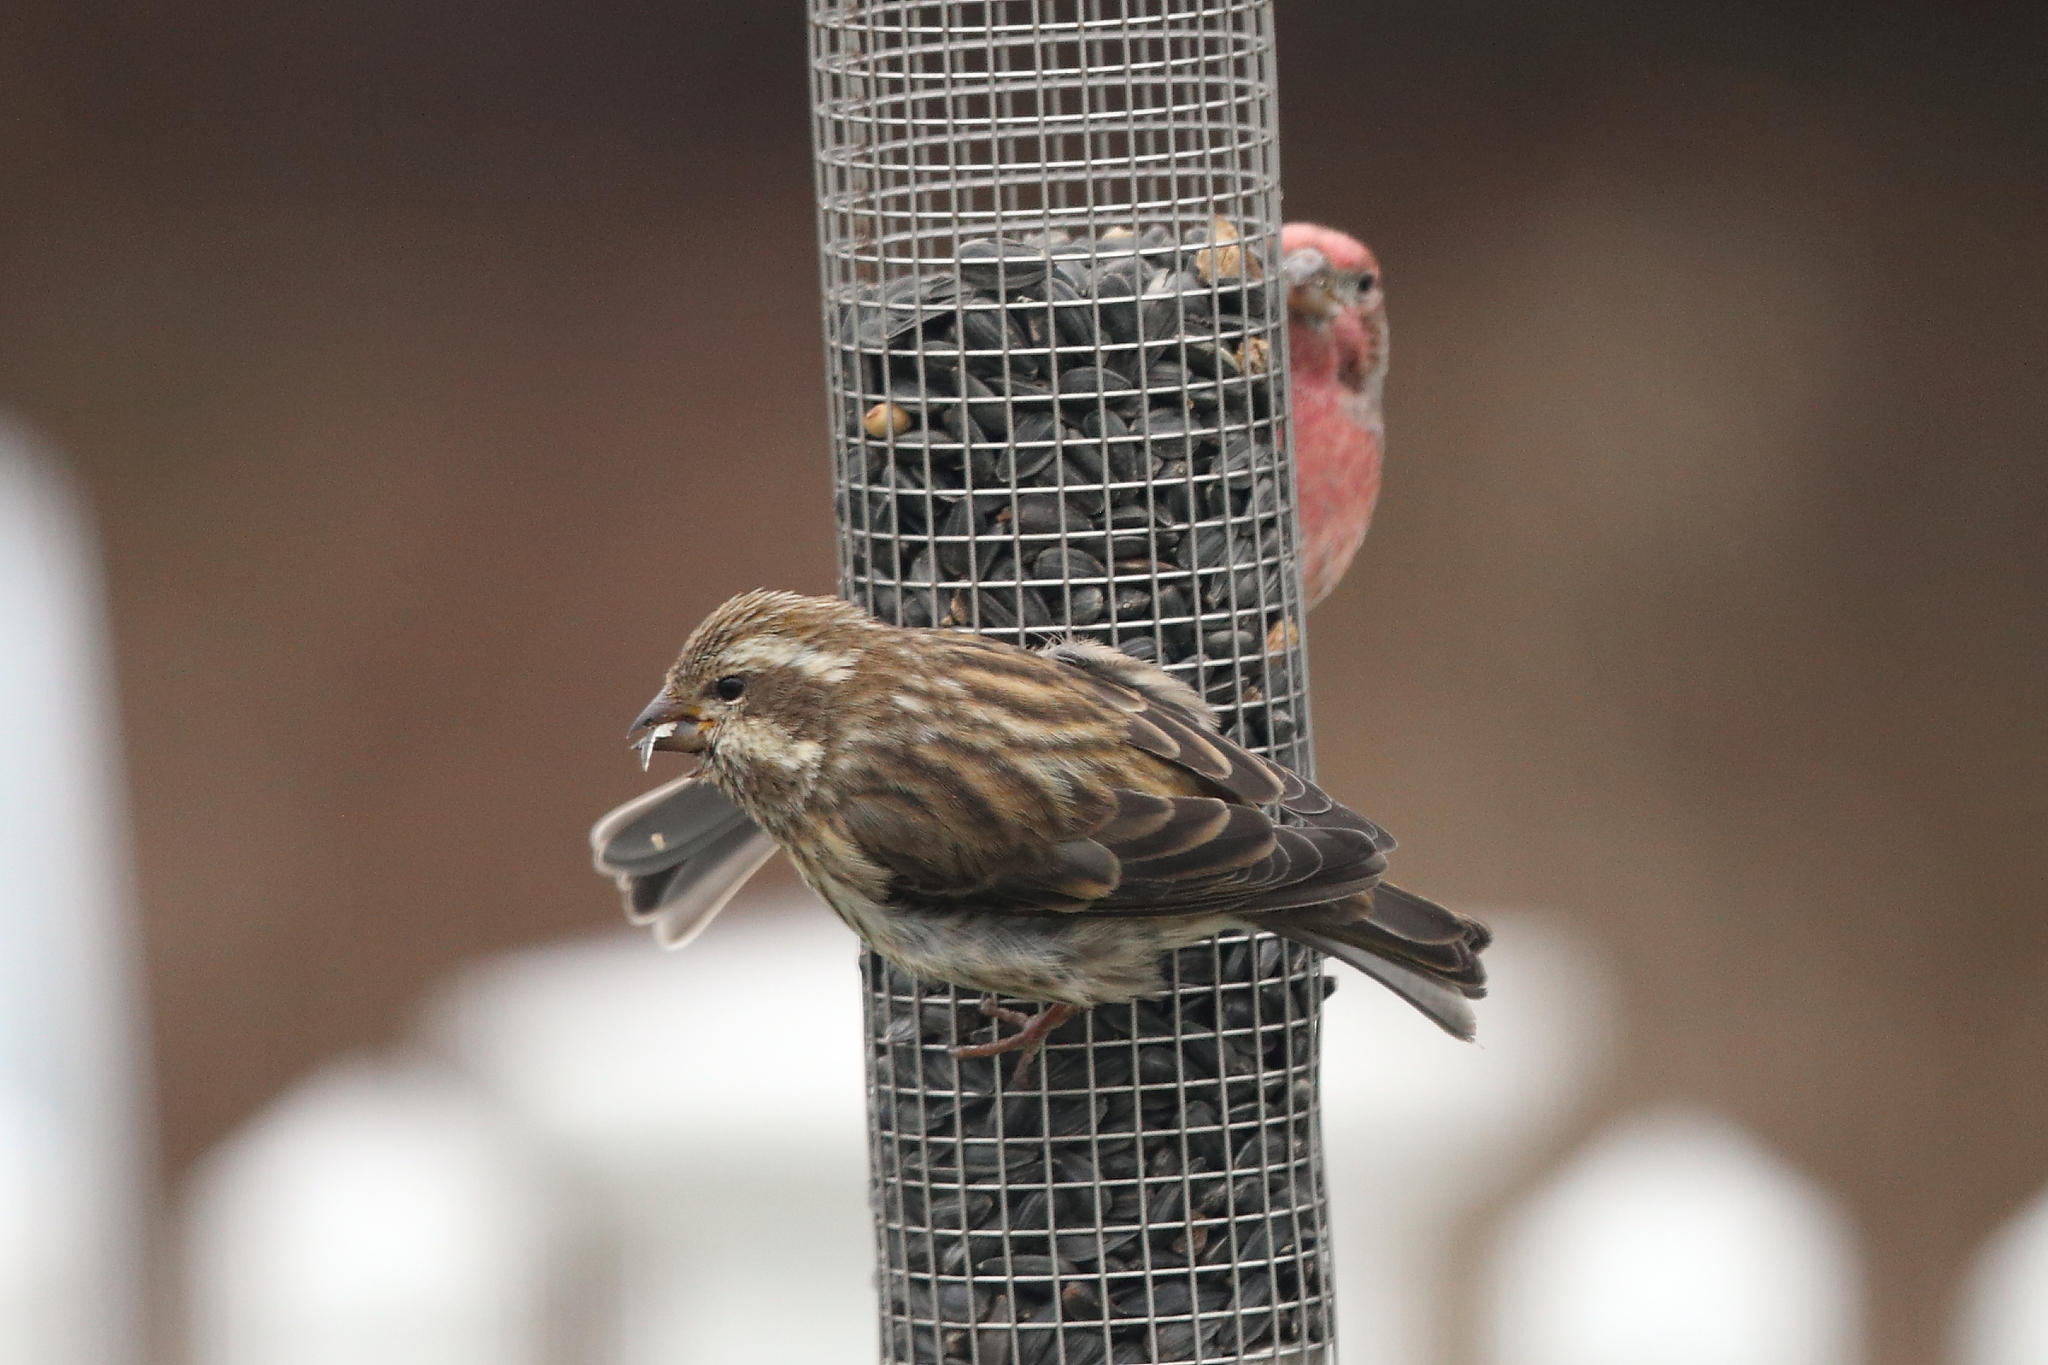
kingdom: Animalia
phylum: Chordata
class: Aves
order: Passeriformes
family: Fringillidae
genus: Haemorhous
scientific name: Haemorhous purpureus
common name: Purple finch
